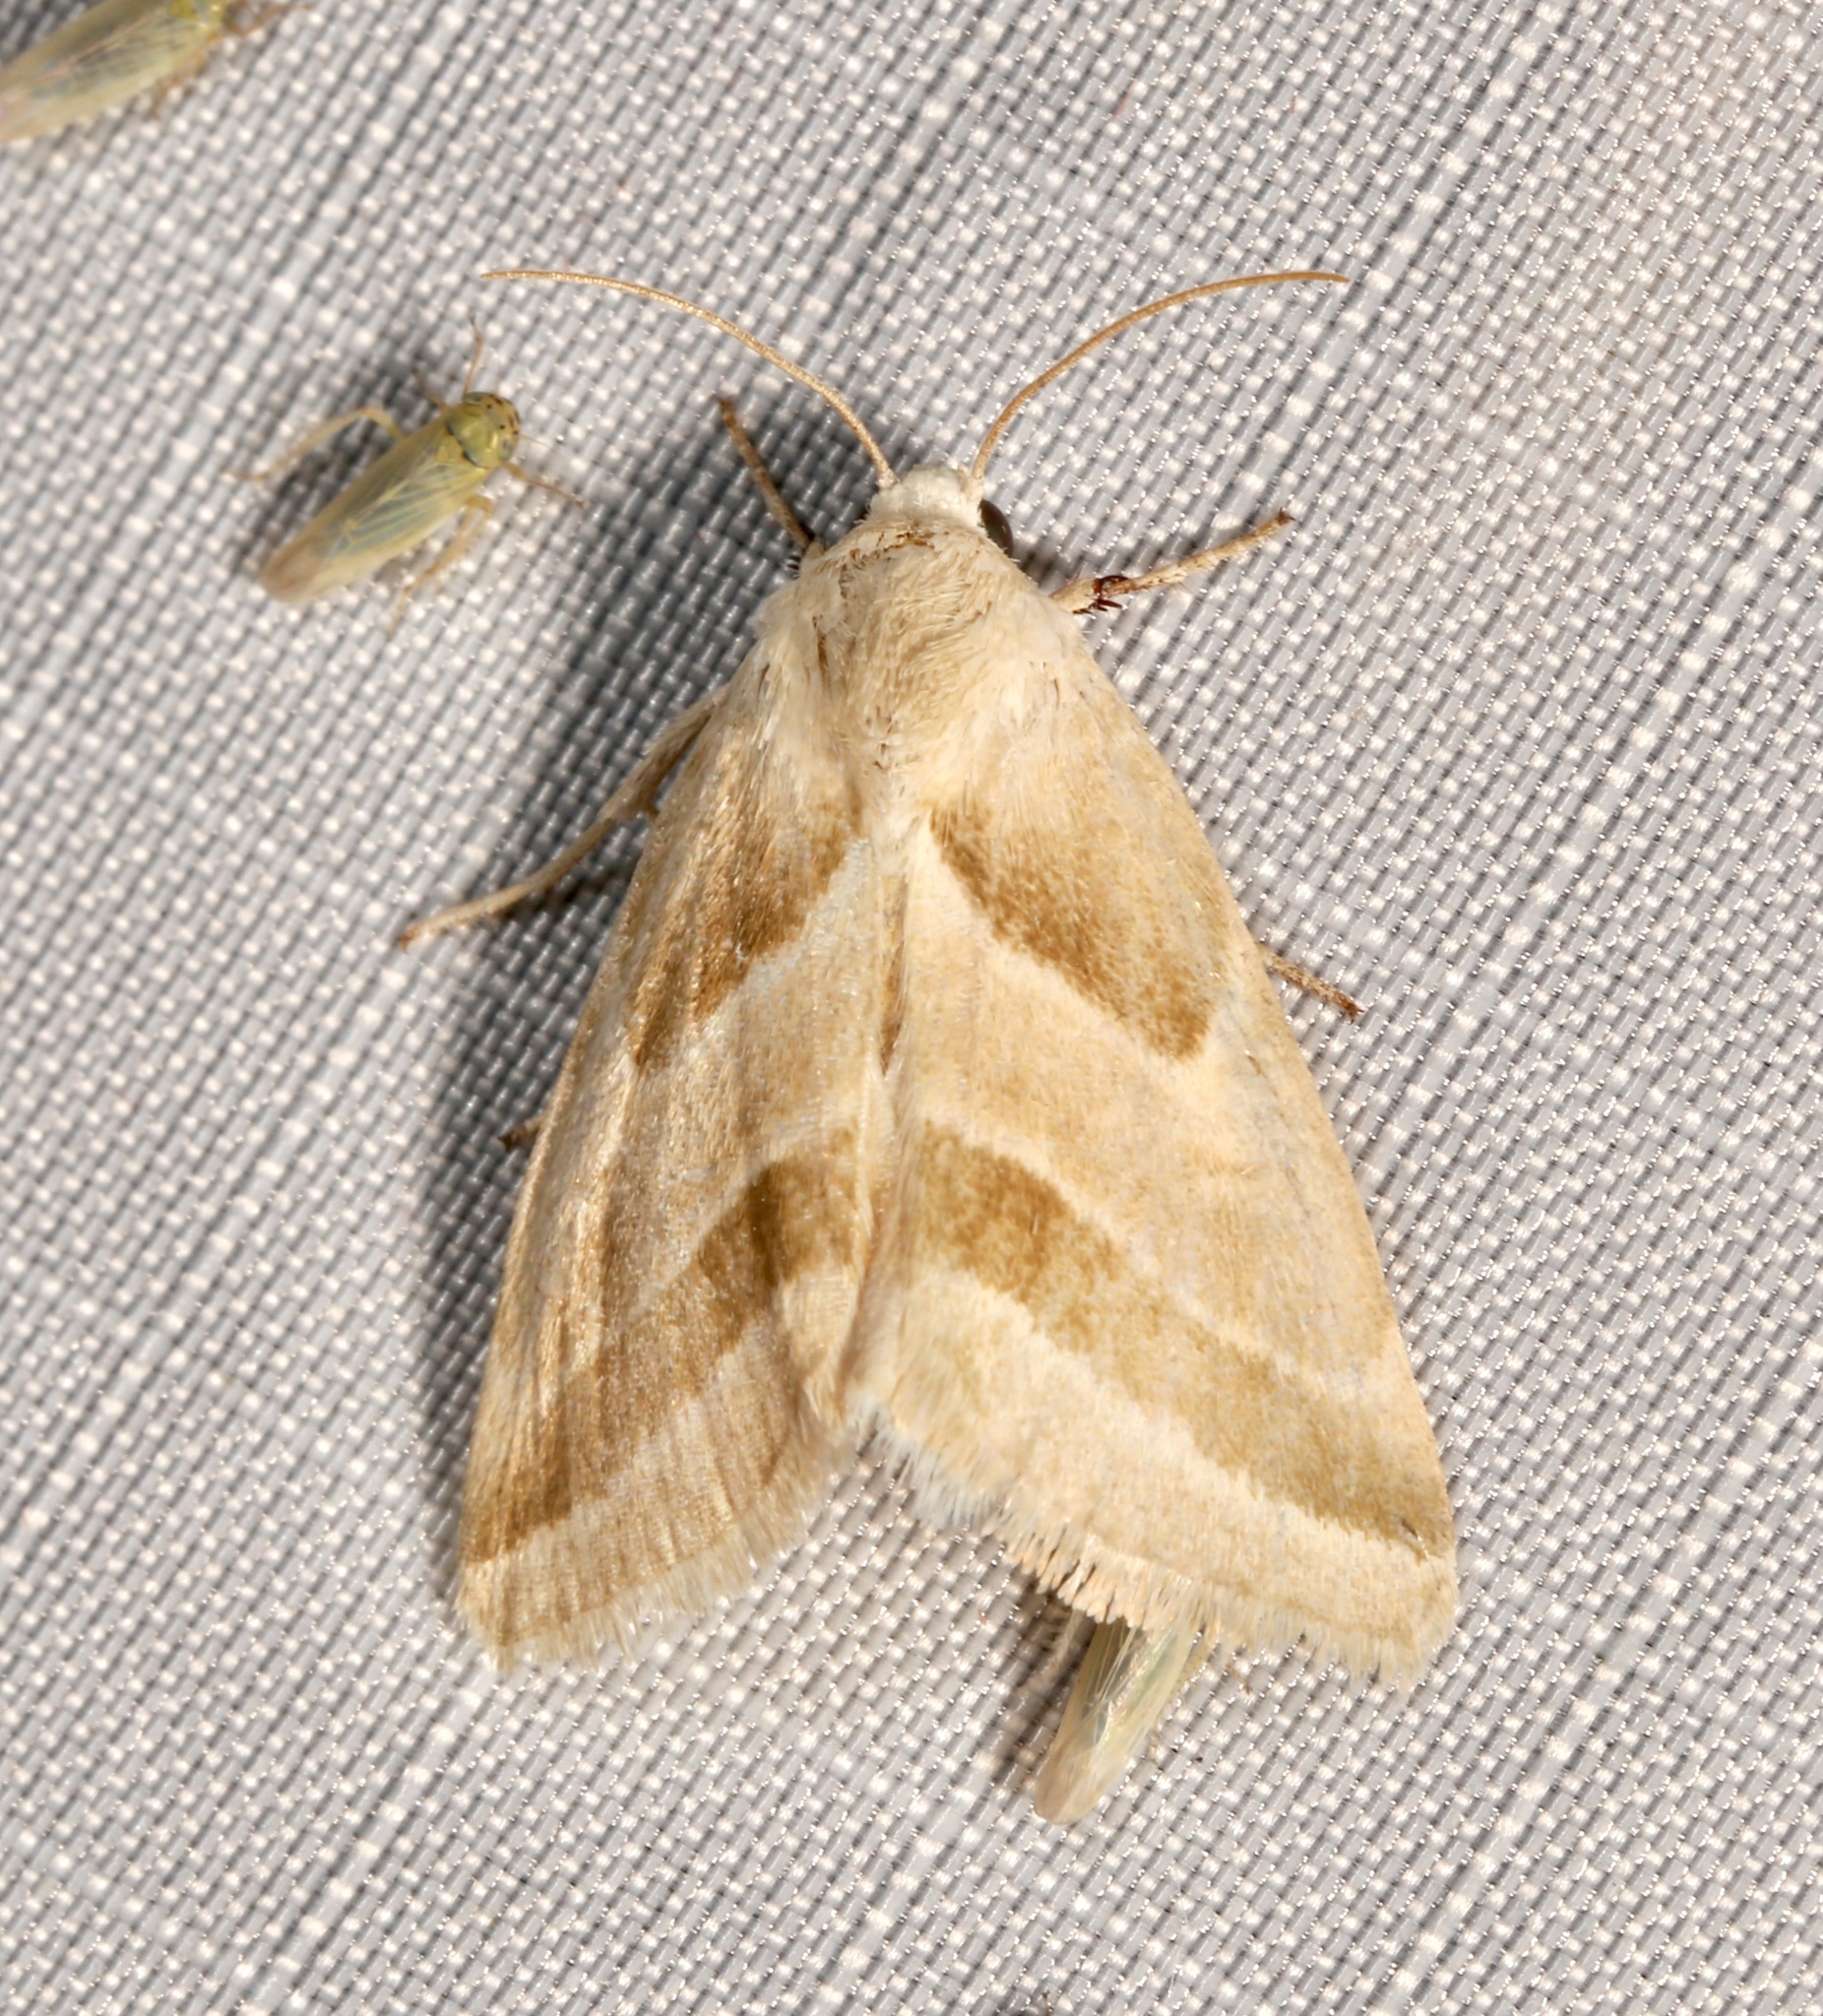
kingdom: Animalia
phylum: Arthropoda
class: Insecta
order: Lepidoptera
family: Noctuidae
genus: Schinia
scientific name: Schinia grandimedia
